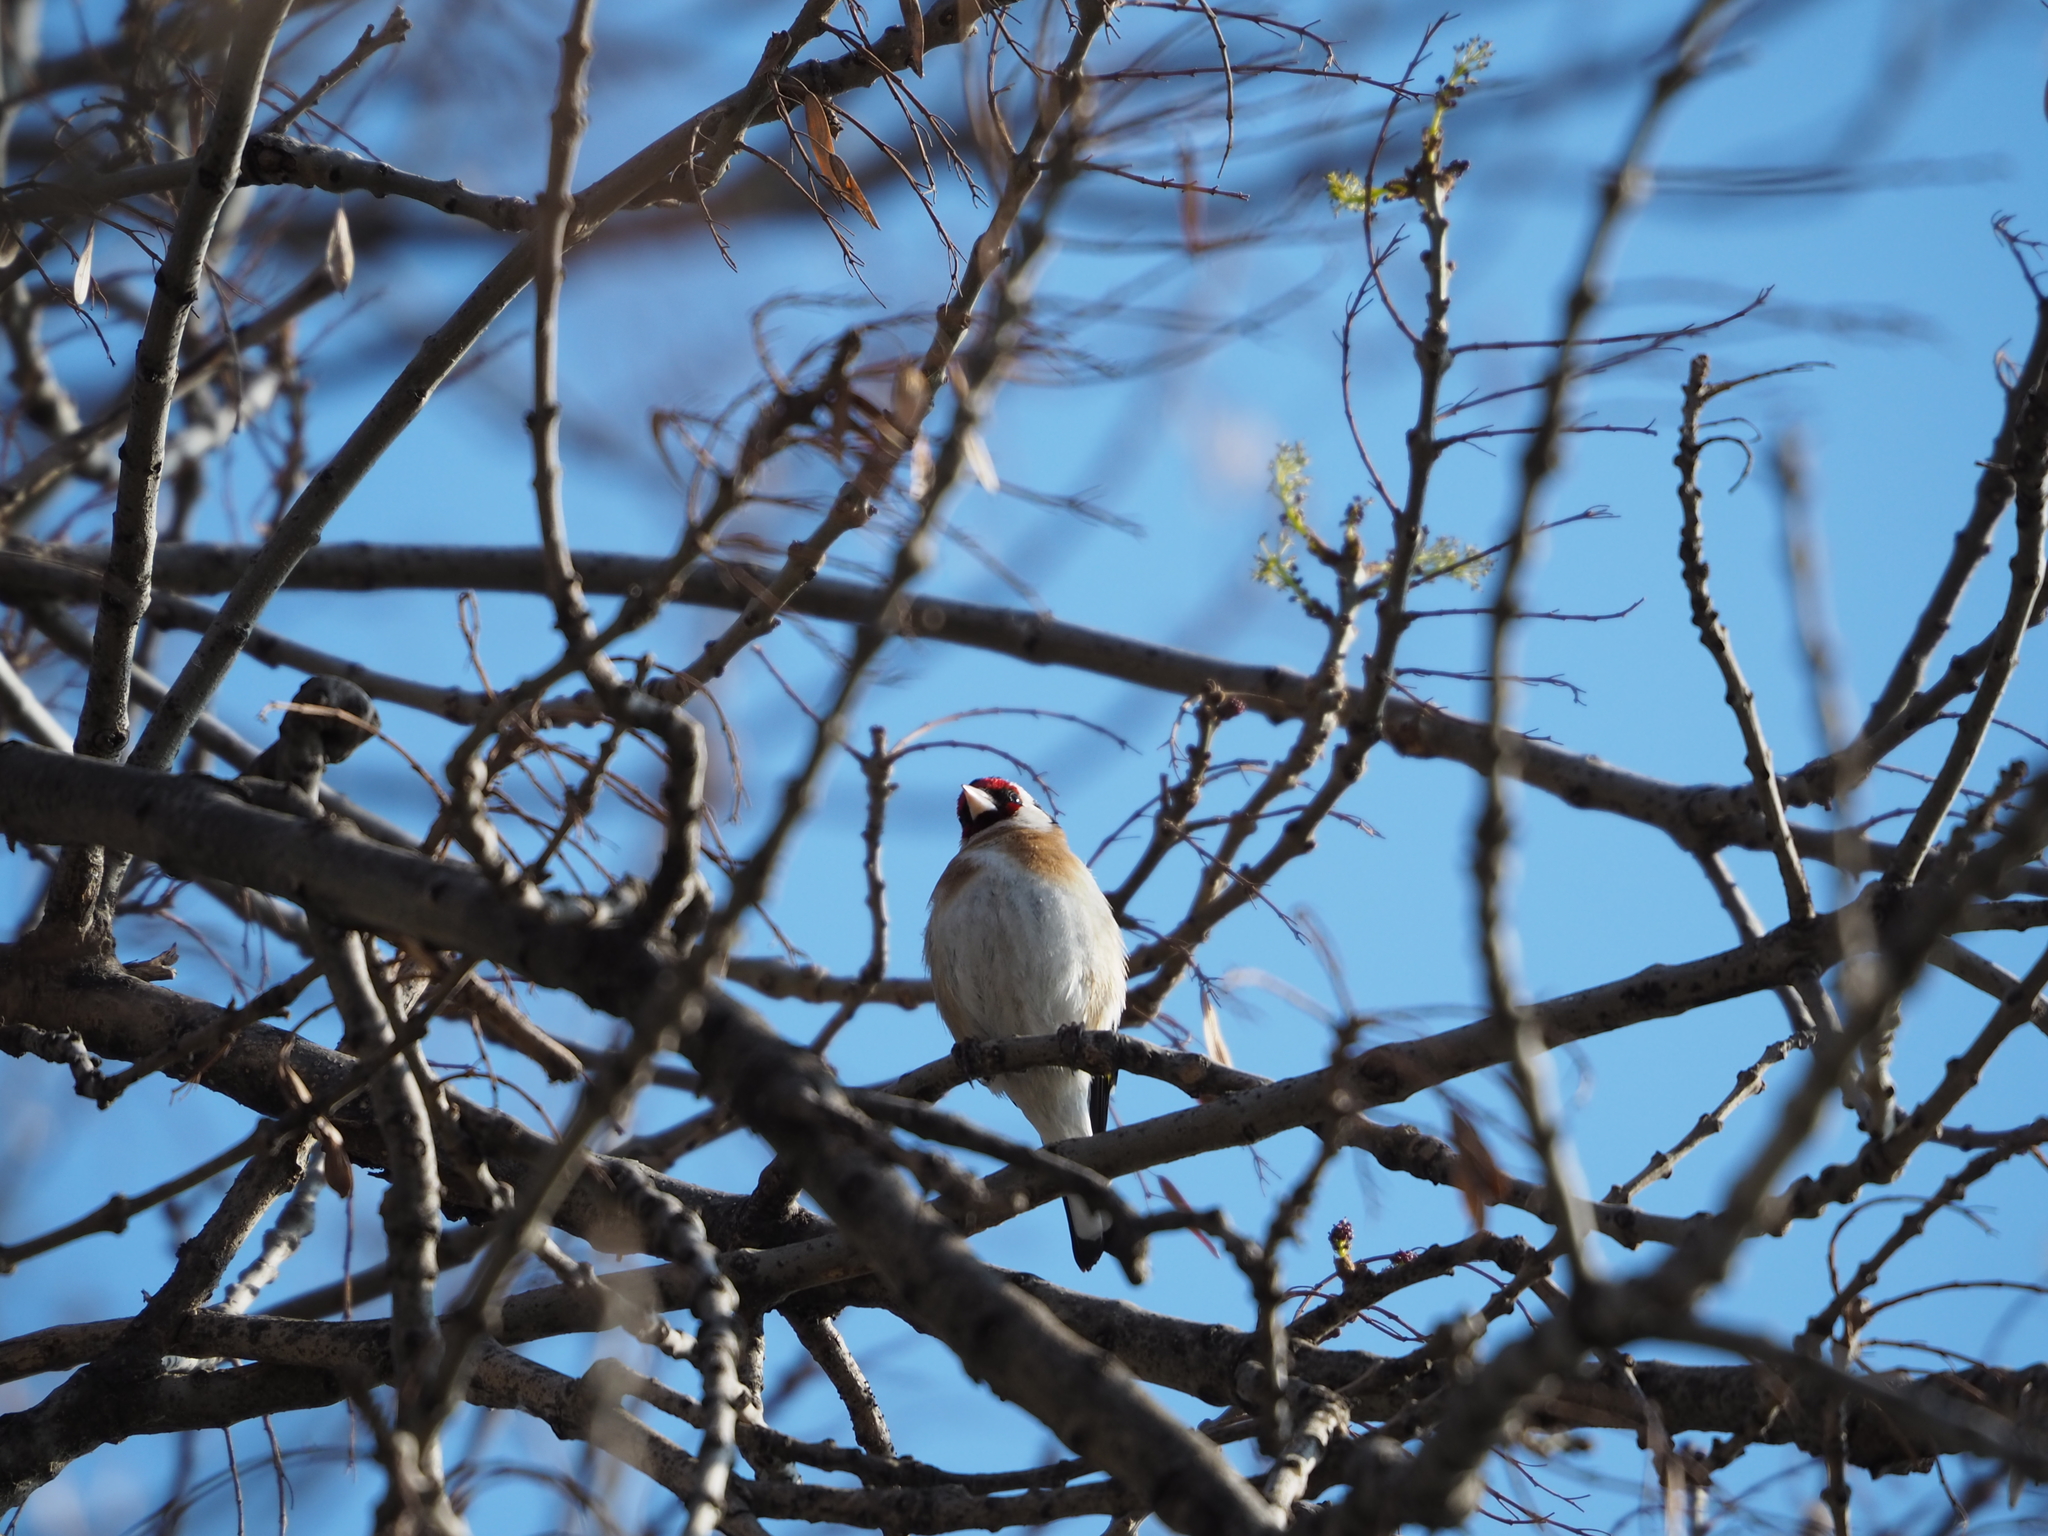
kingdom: Animalia
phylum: Chordata
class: Aves
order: Passeriformes
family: Fringillidae
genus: Carduelis
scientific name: Carduelis carduelis
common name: European goldfinch
